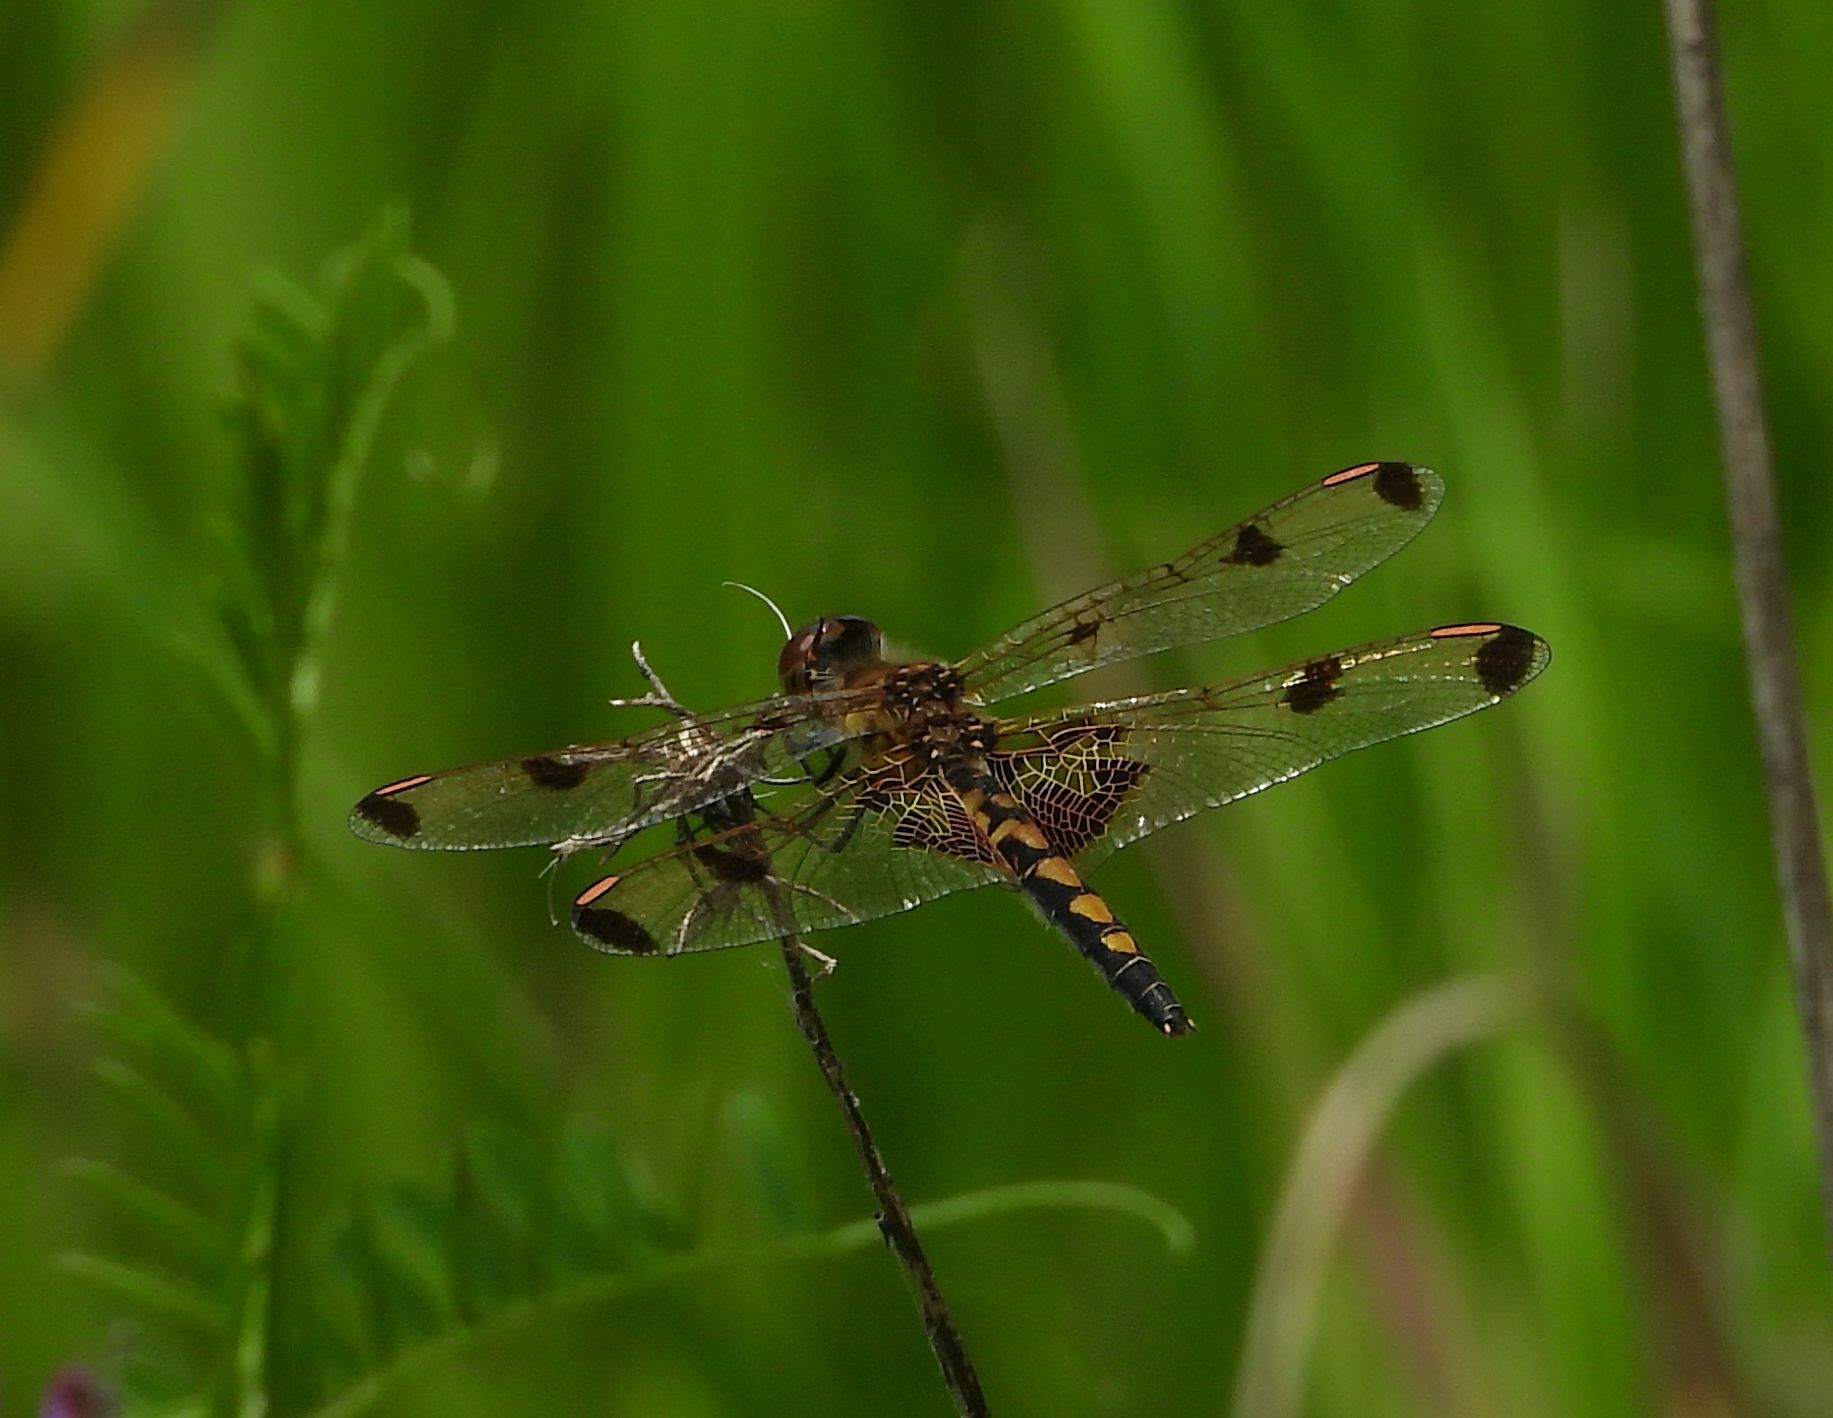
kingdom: Animalia
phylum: Arthropoda
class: Insecta
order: Odonata
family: Libellulidae
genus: Celithemis
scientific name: Celithemis elisa
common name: Calico pennant
